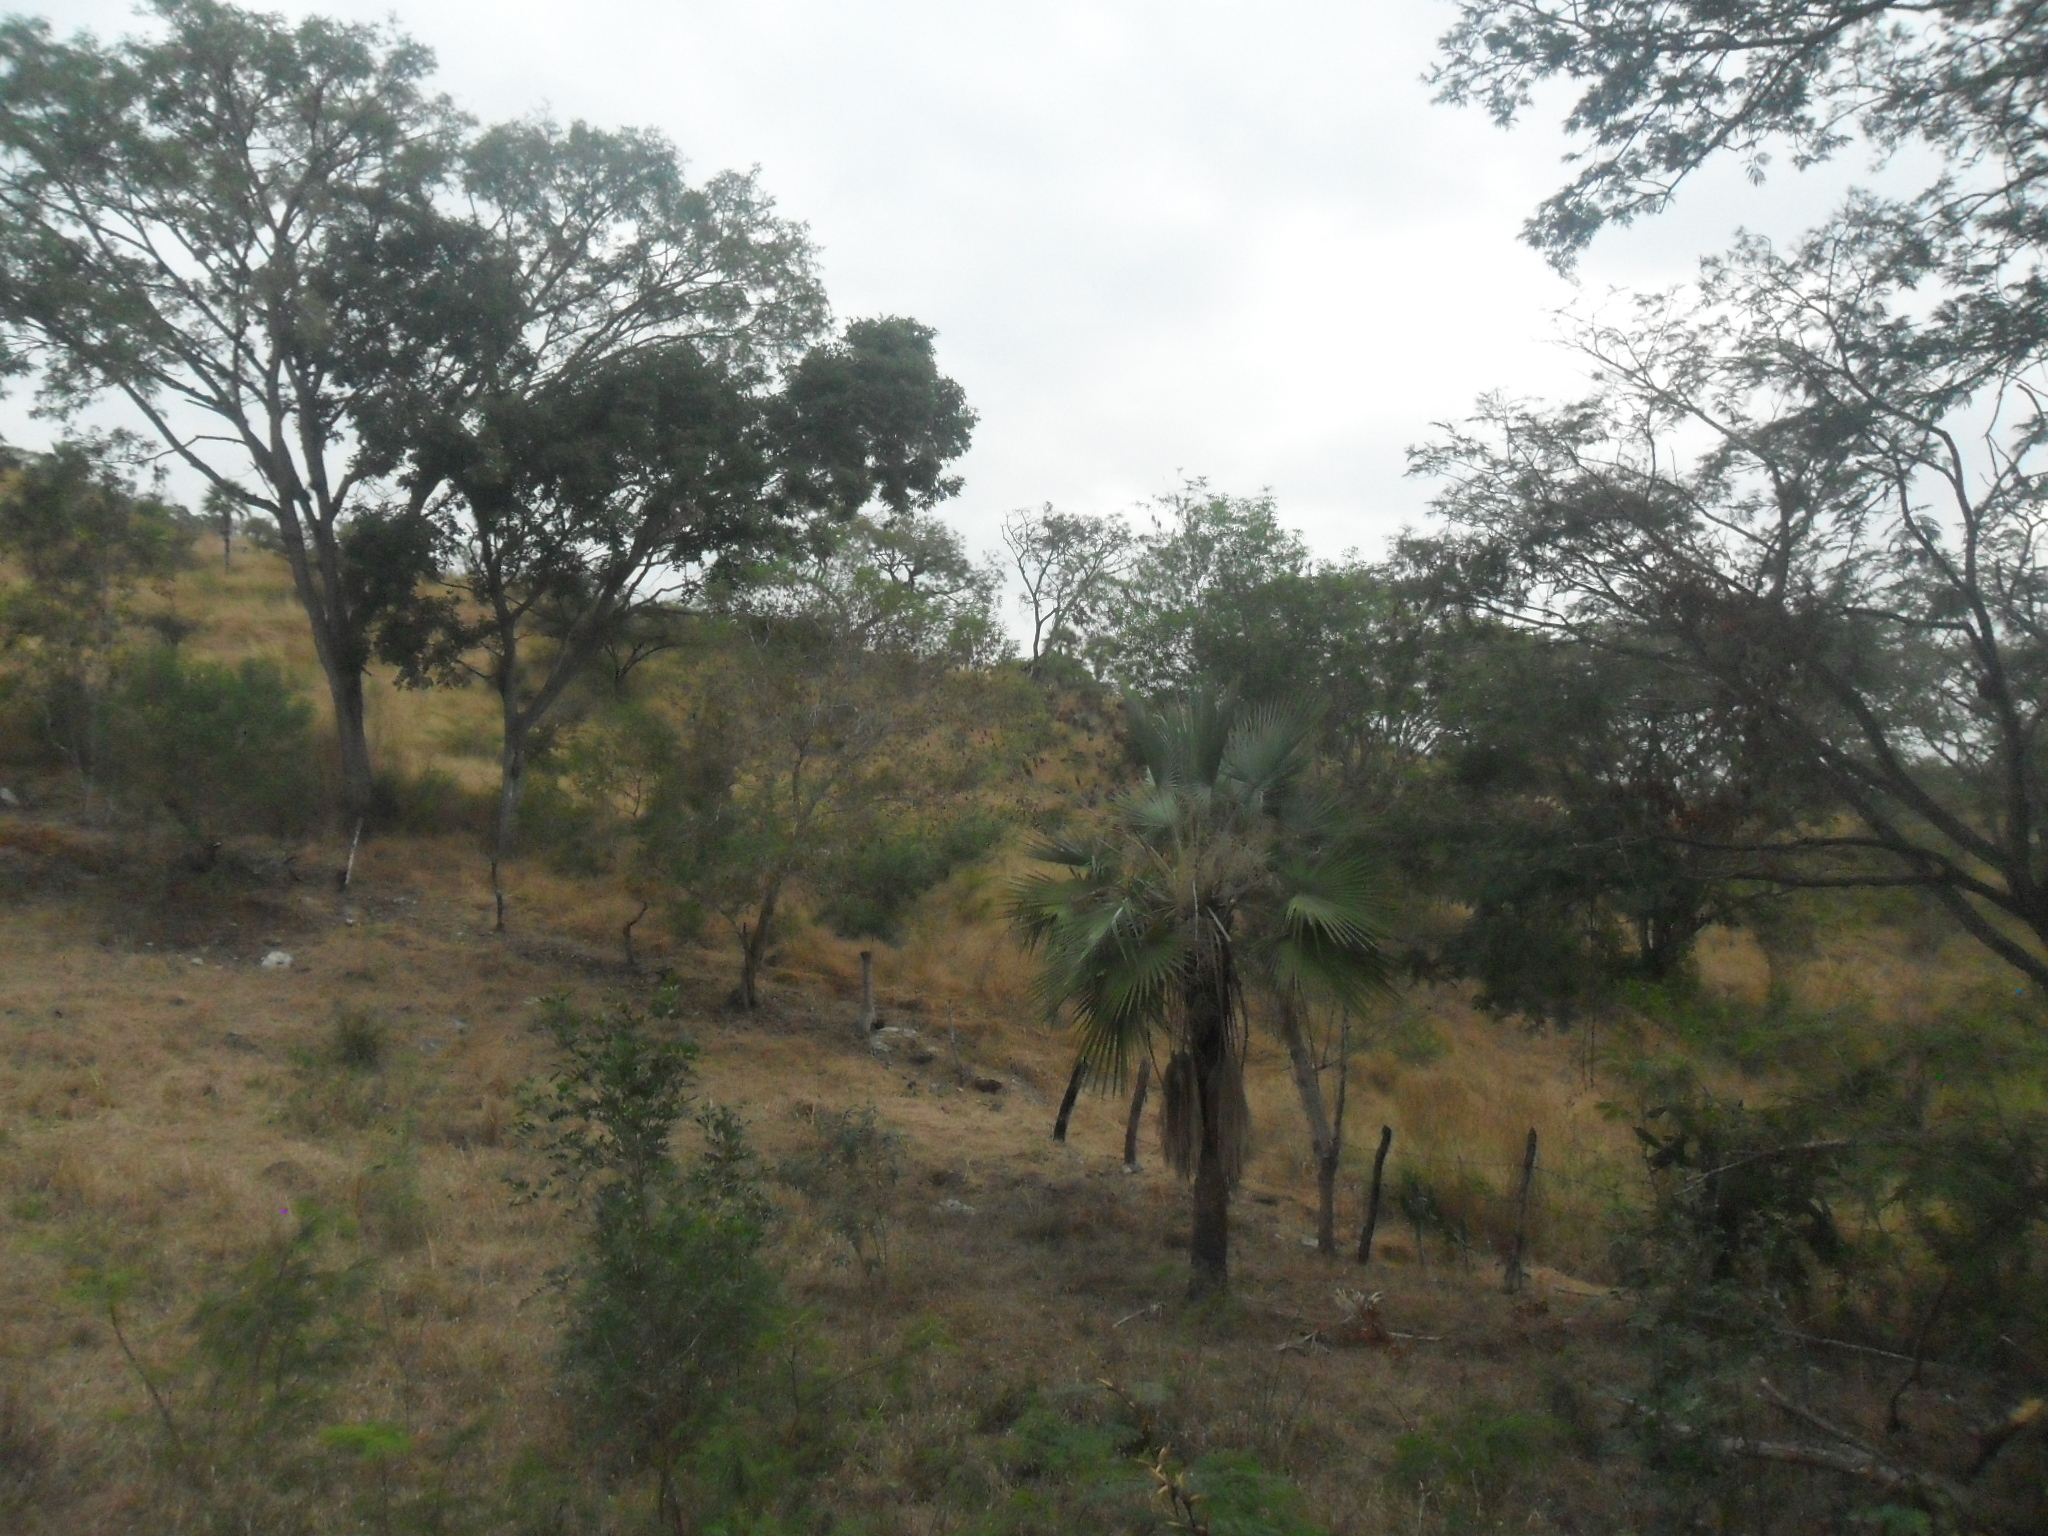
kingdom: Plantae
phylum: Tracheophyta
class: Liliopsida
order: Arecales
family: Arecaceae
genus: Brahea
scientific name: Brahea dulcis
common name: Apak palm
